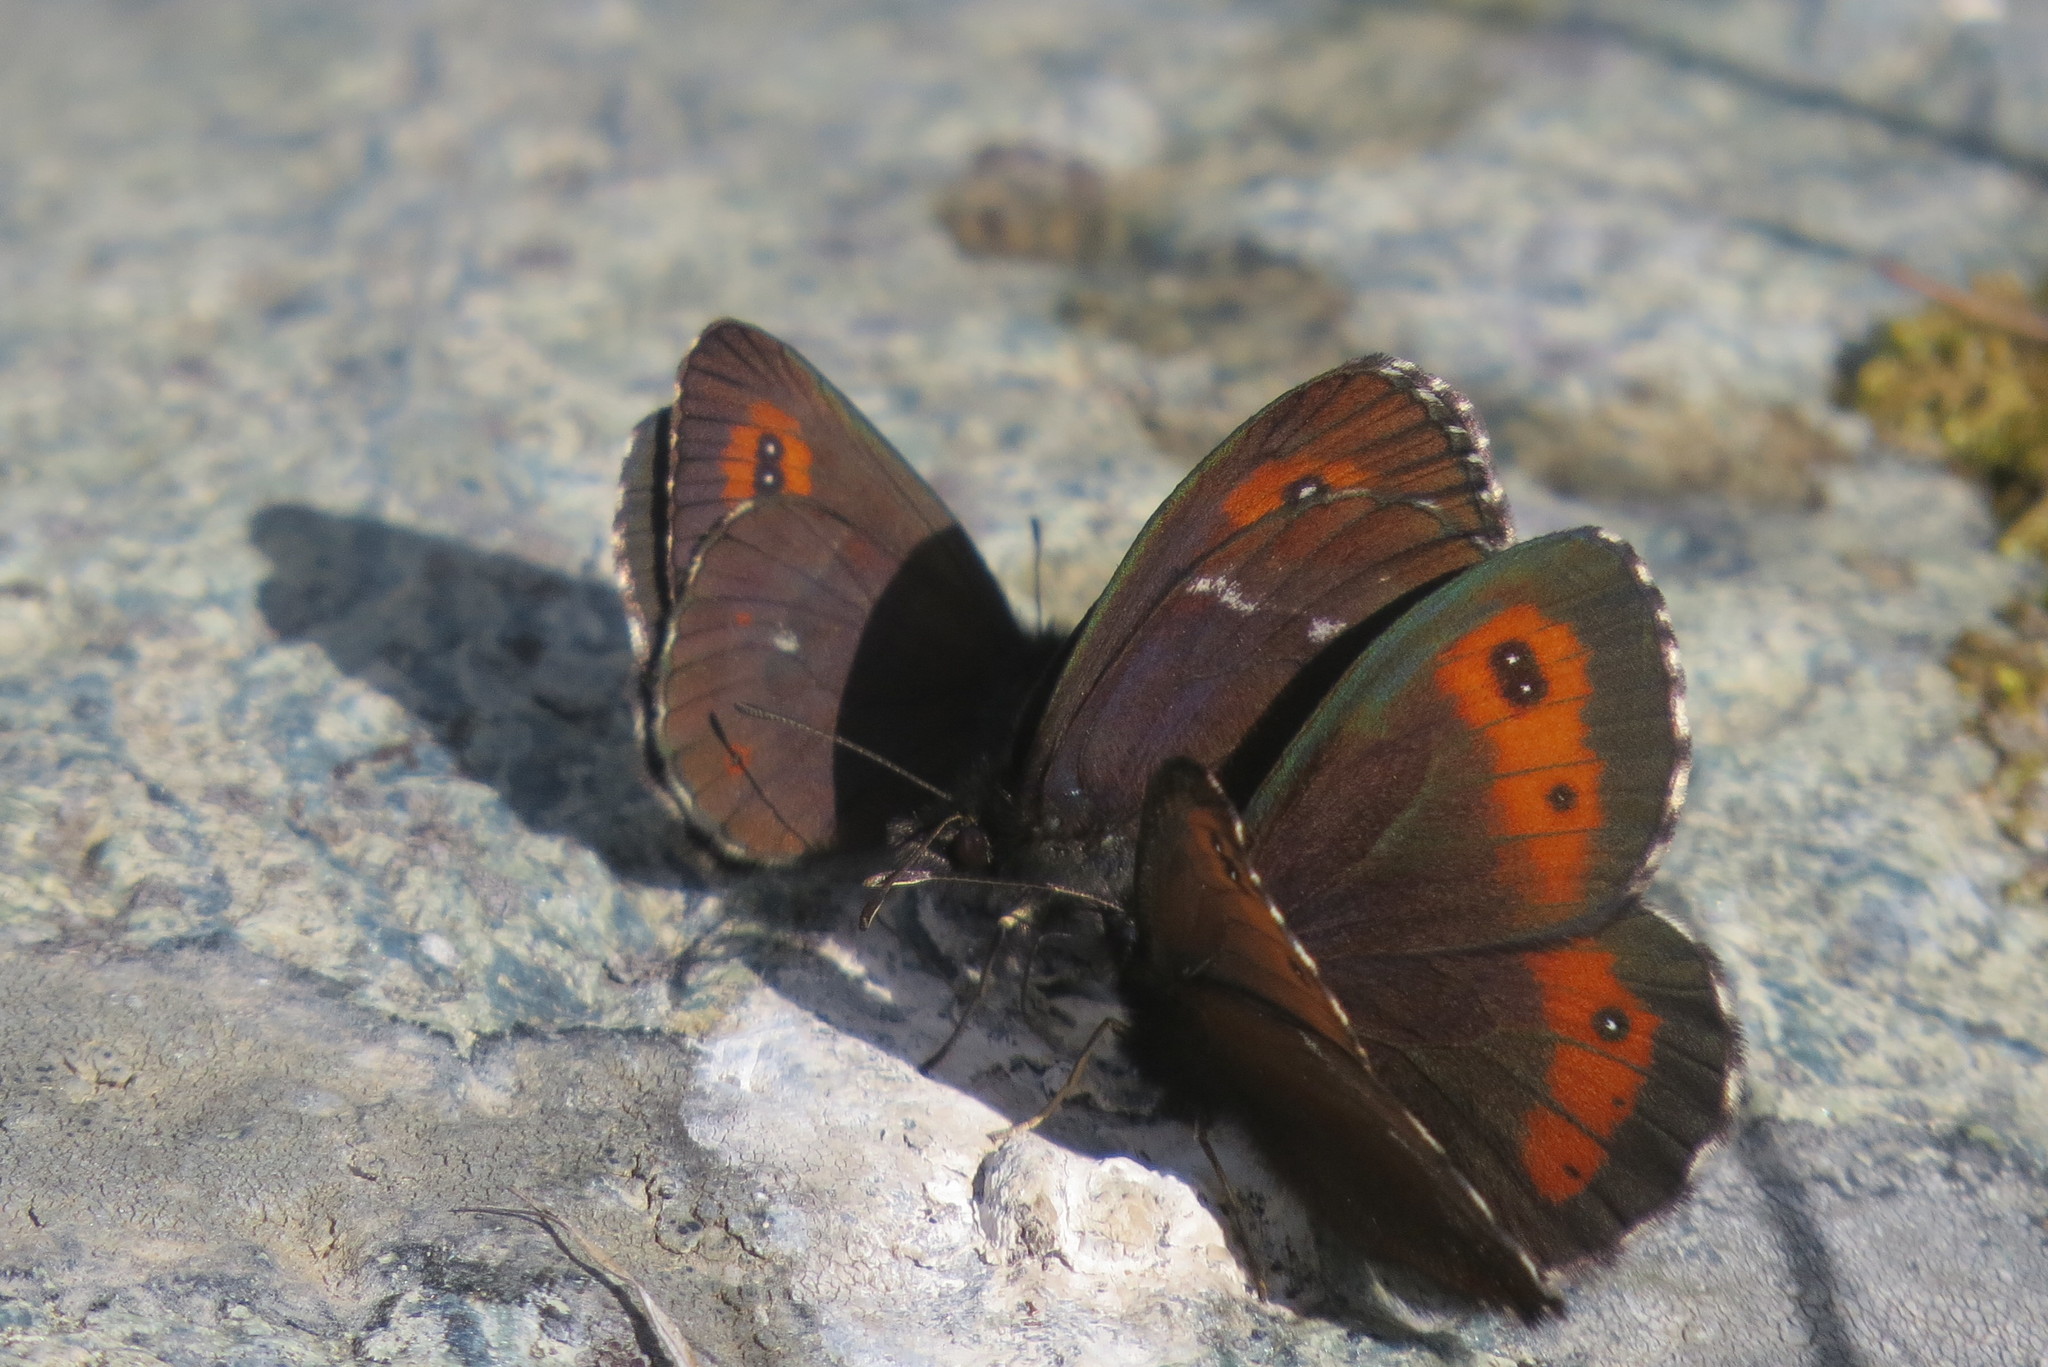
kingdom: Animalia
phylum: Arthropoda
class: Insecta
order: Lepidoptera
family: Nymphalidae
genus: Erebia
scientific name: Erebia euryale
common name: Large ringlet
